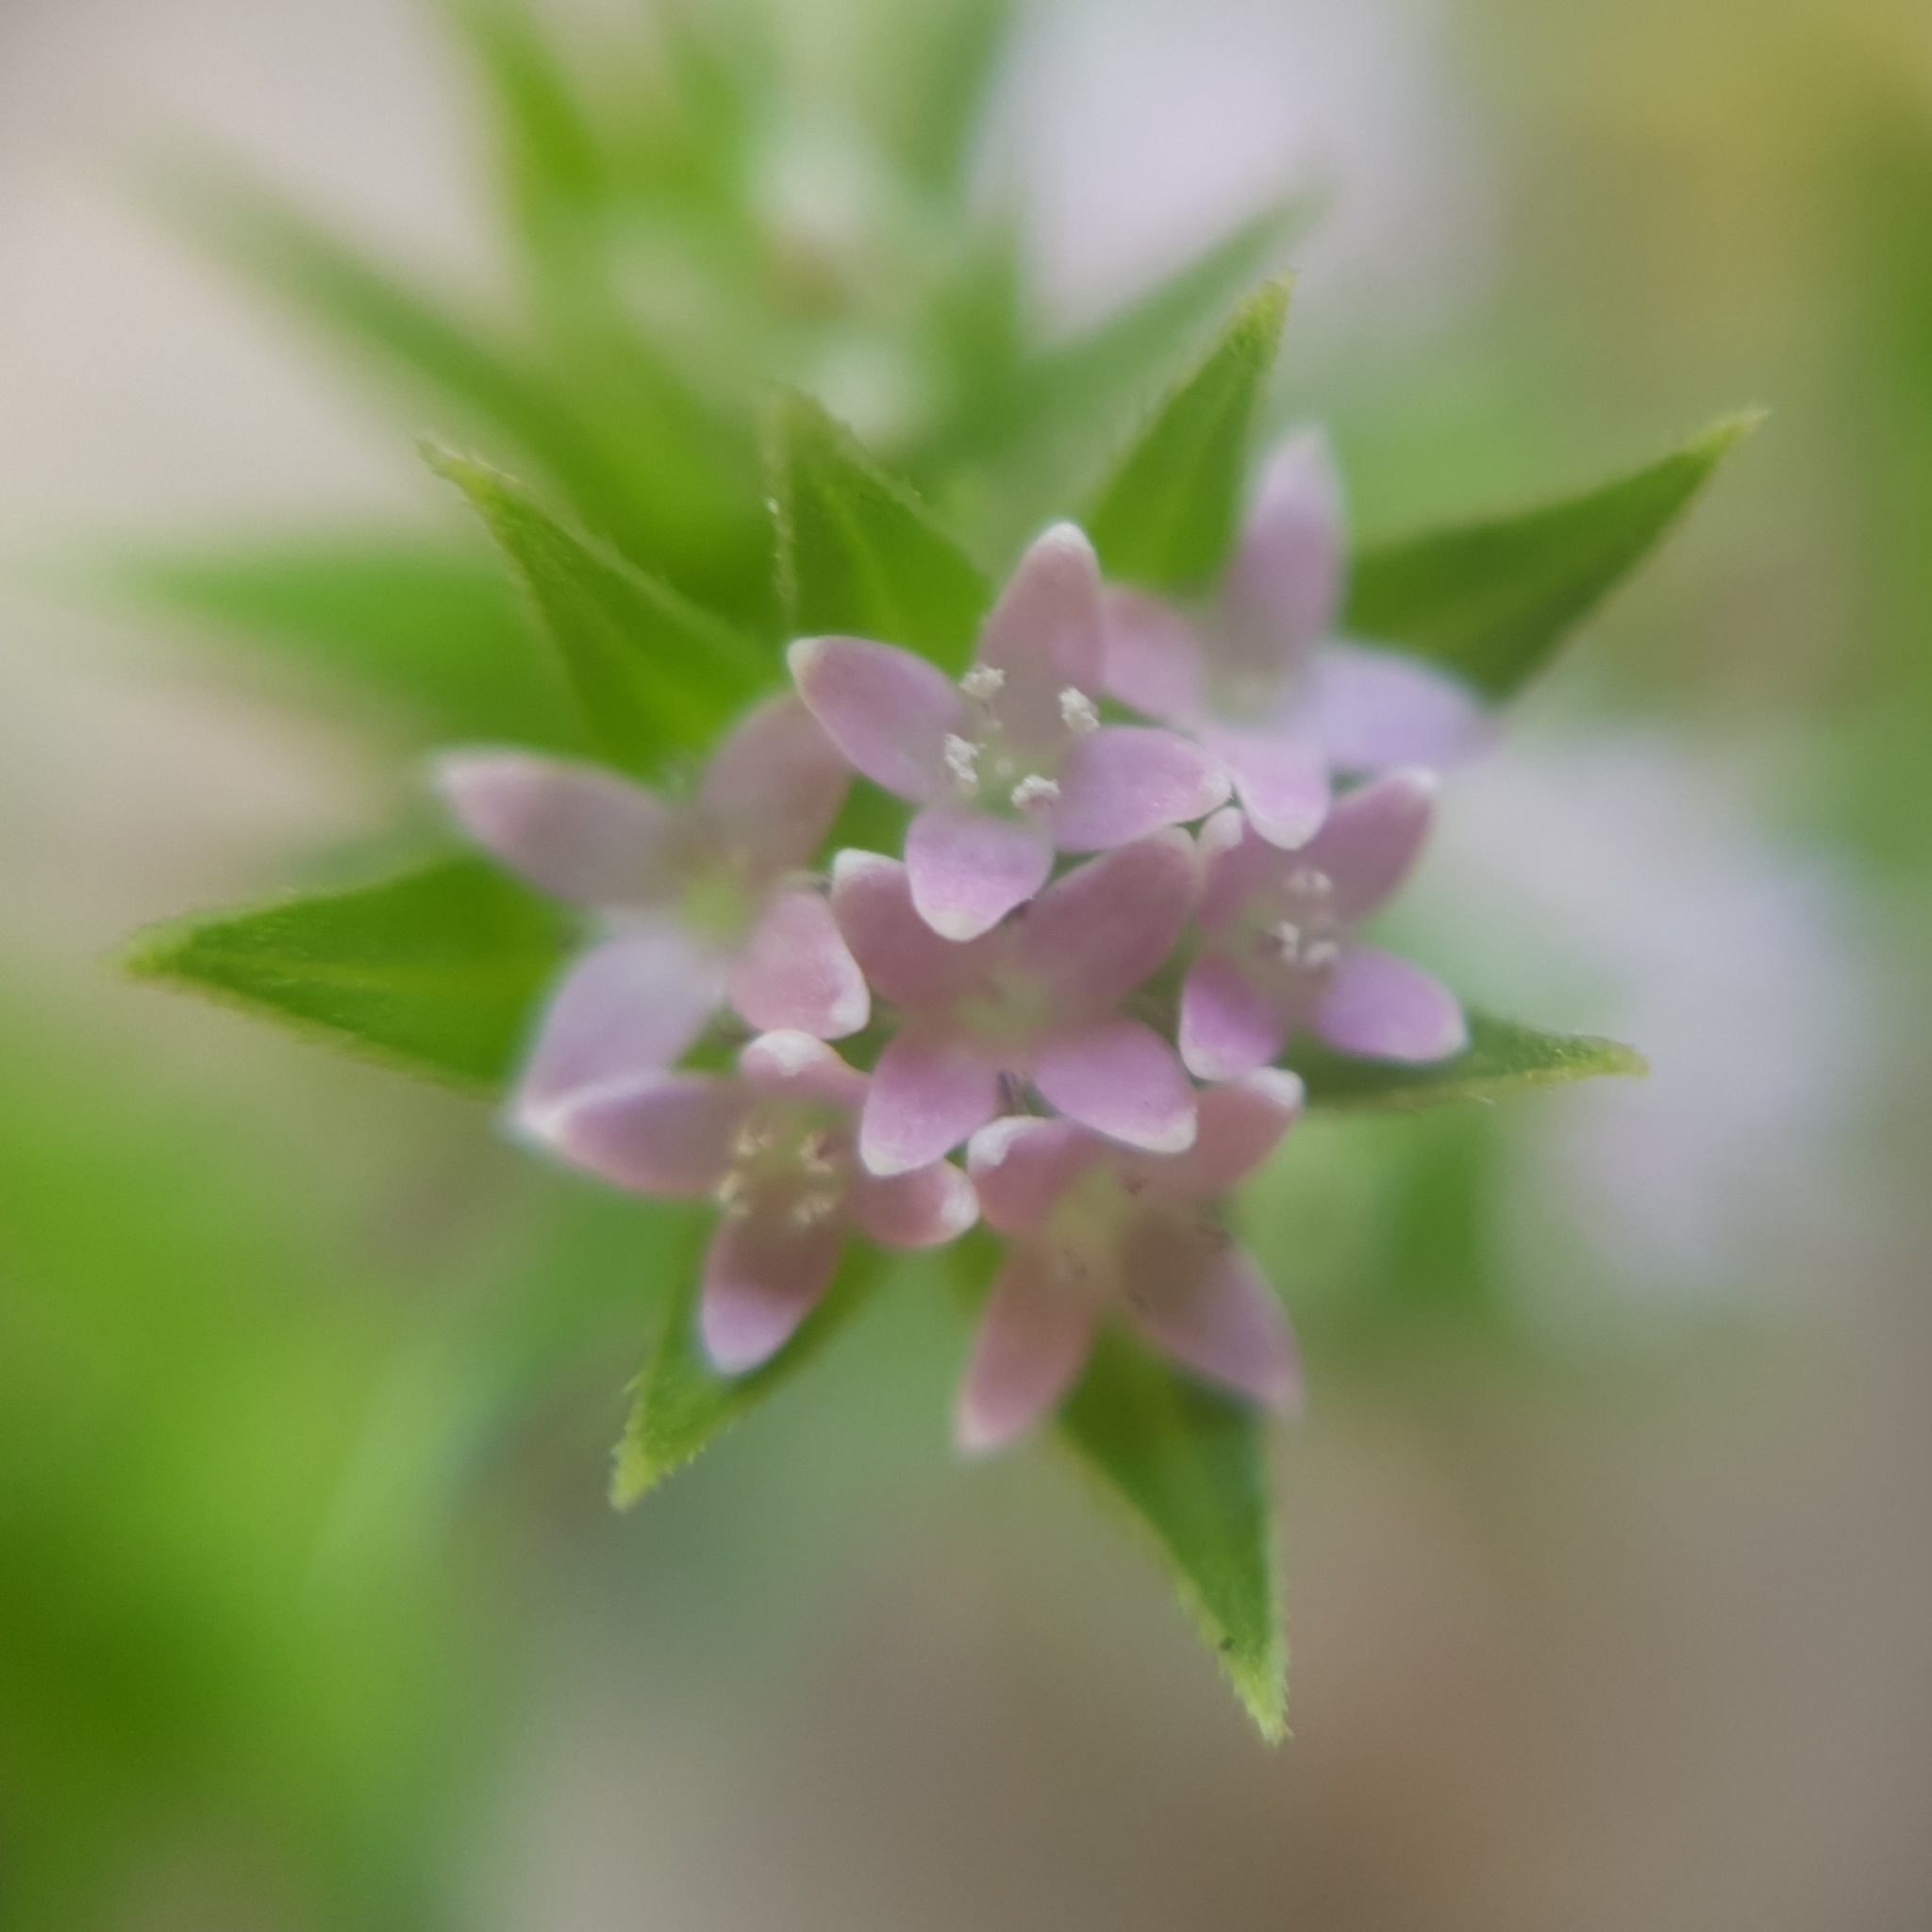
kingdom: Plantae
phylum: Tracheophyta
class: Magnoliopsida
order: Gentianales
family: Rubiaceae
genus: Sherardia
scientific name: Sherardia arvensis
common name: Field madder
